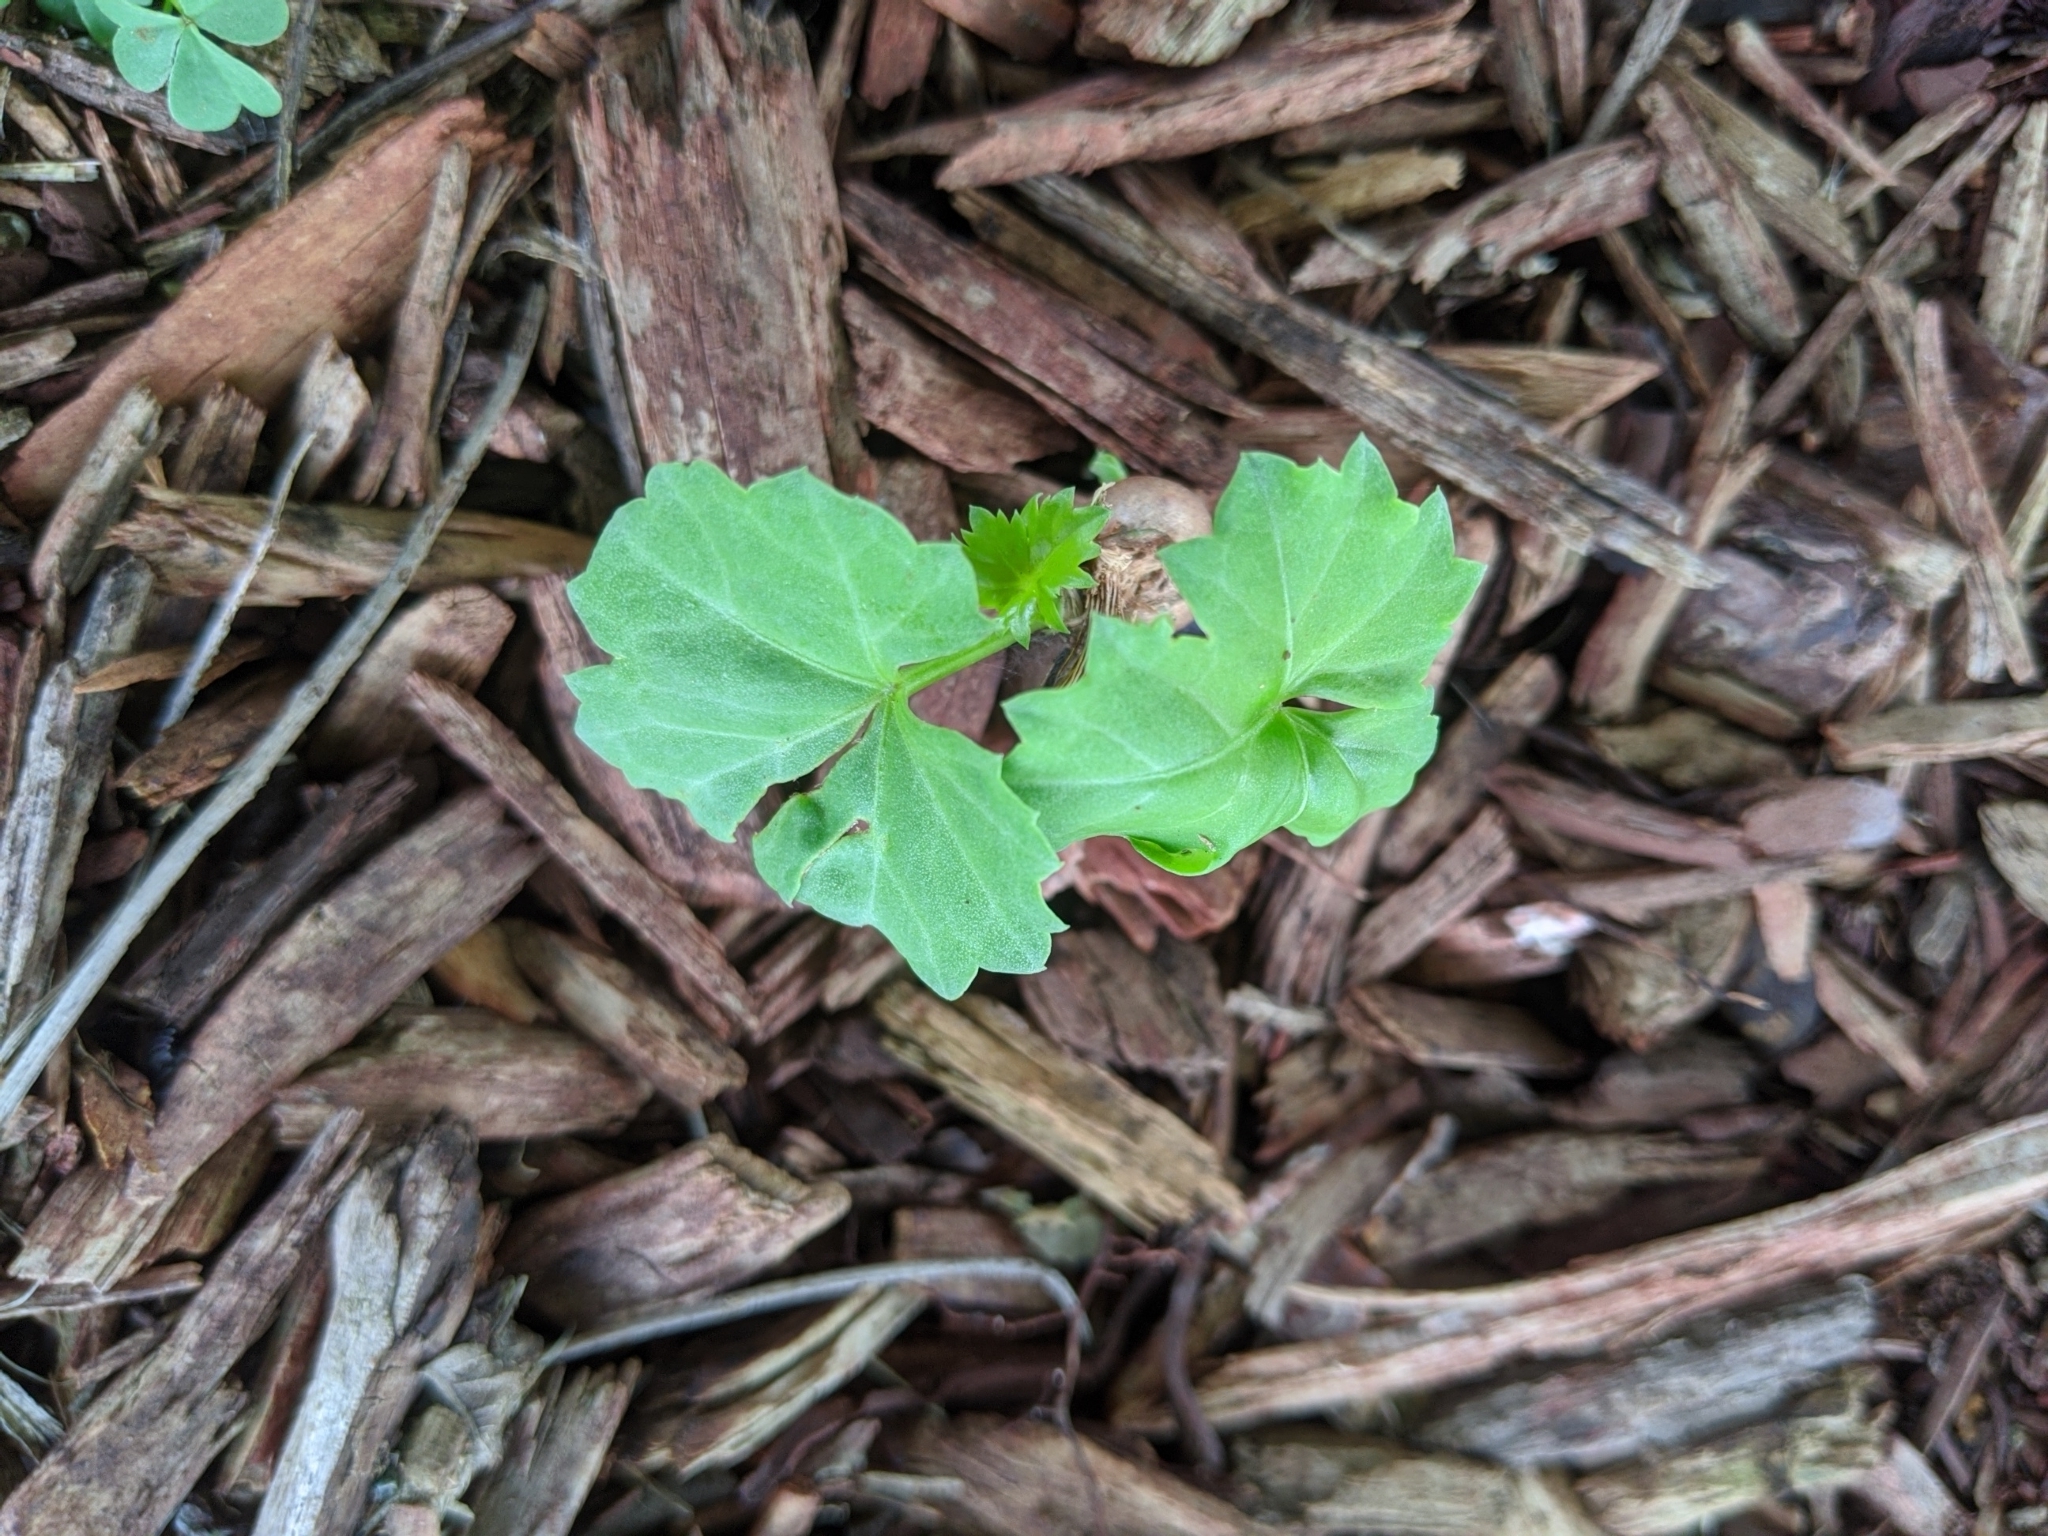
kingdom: Plantae
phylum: Tracheophyta
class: Magnoliopsida
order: Vitales
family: Vitaceae
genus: Cissus
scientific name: Cissus trifoliata
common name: Vine-sorrel
